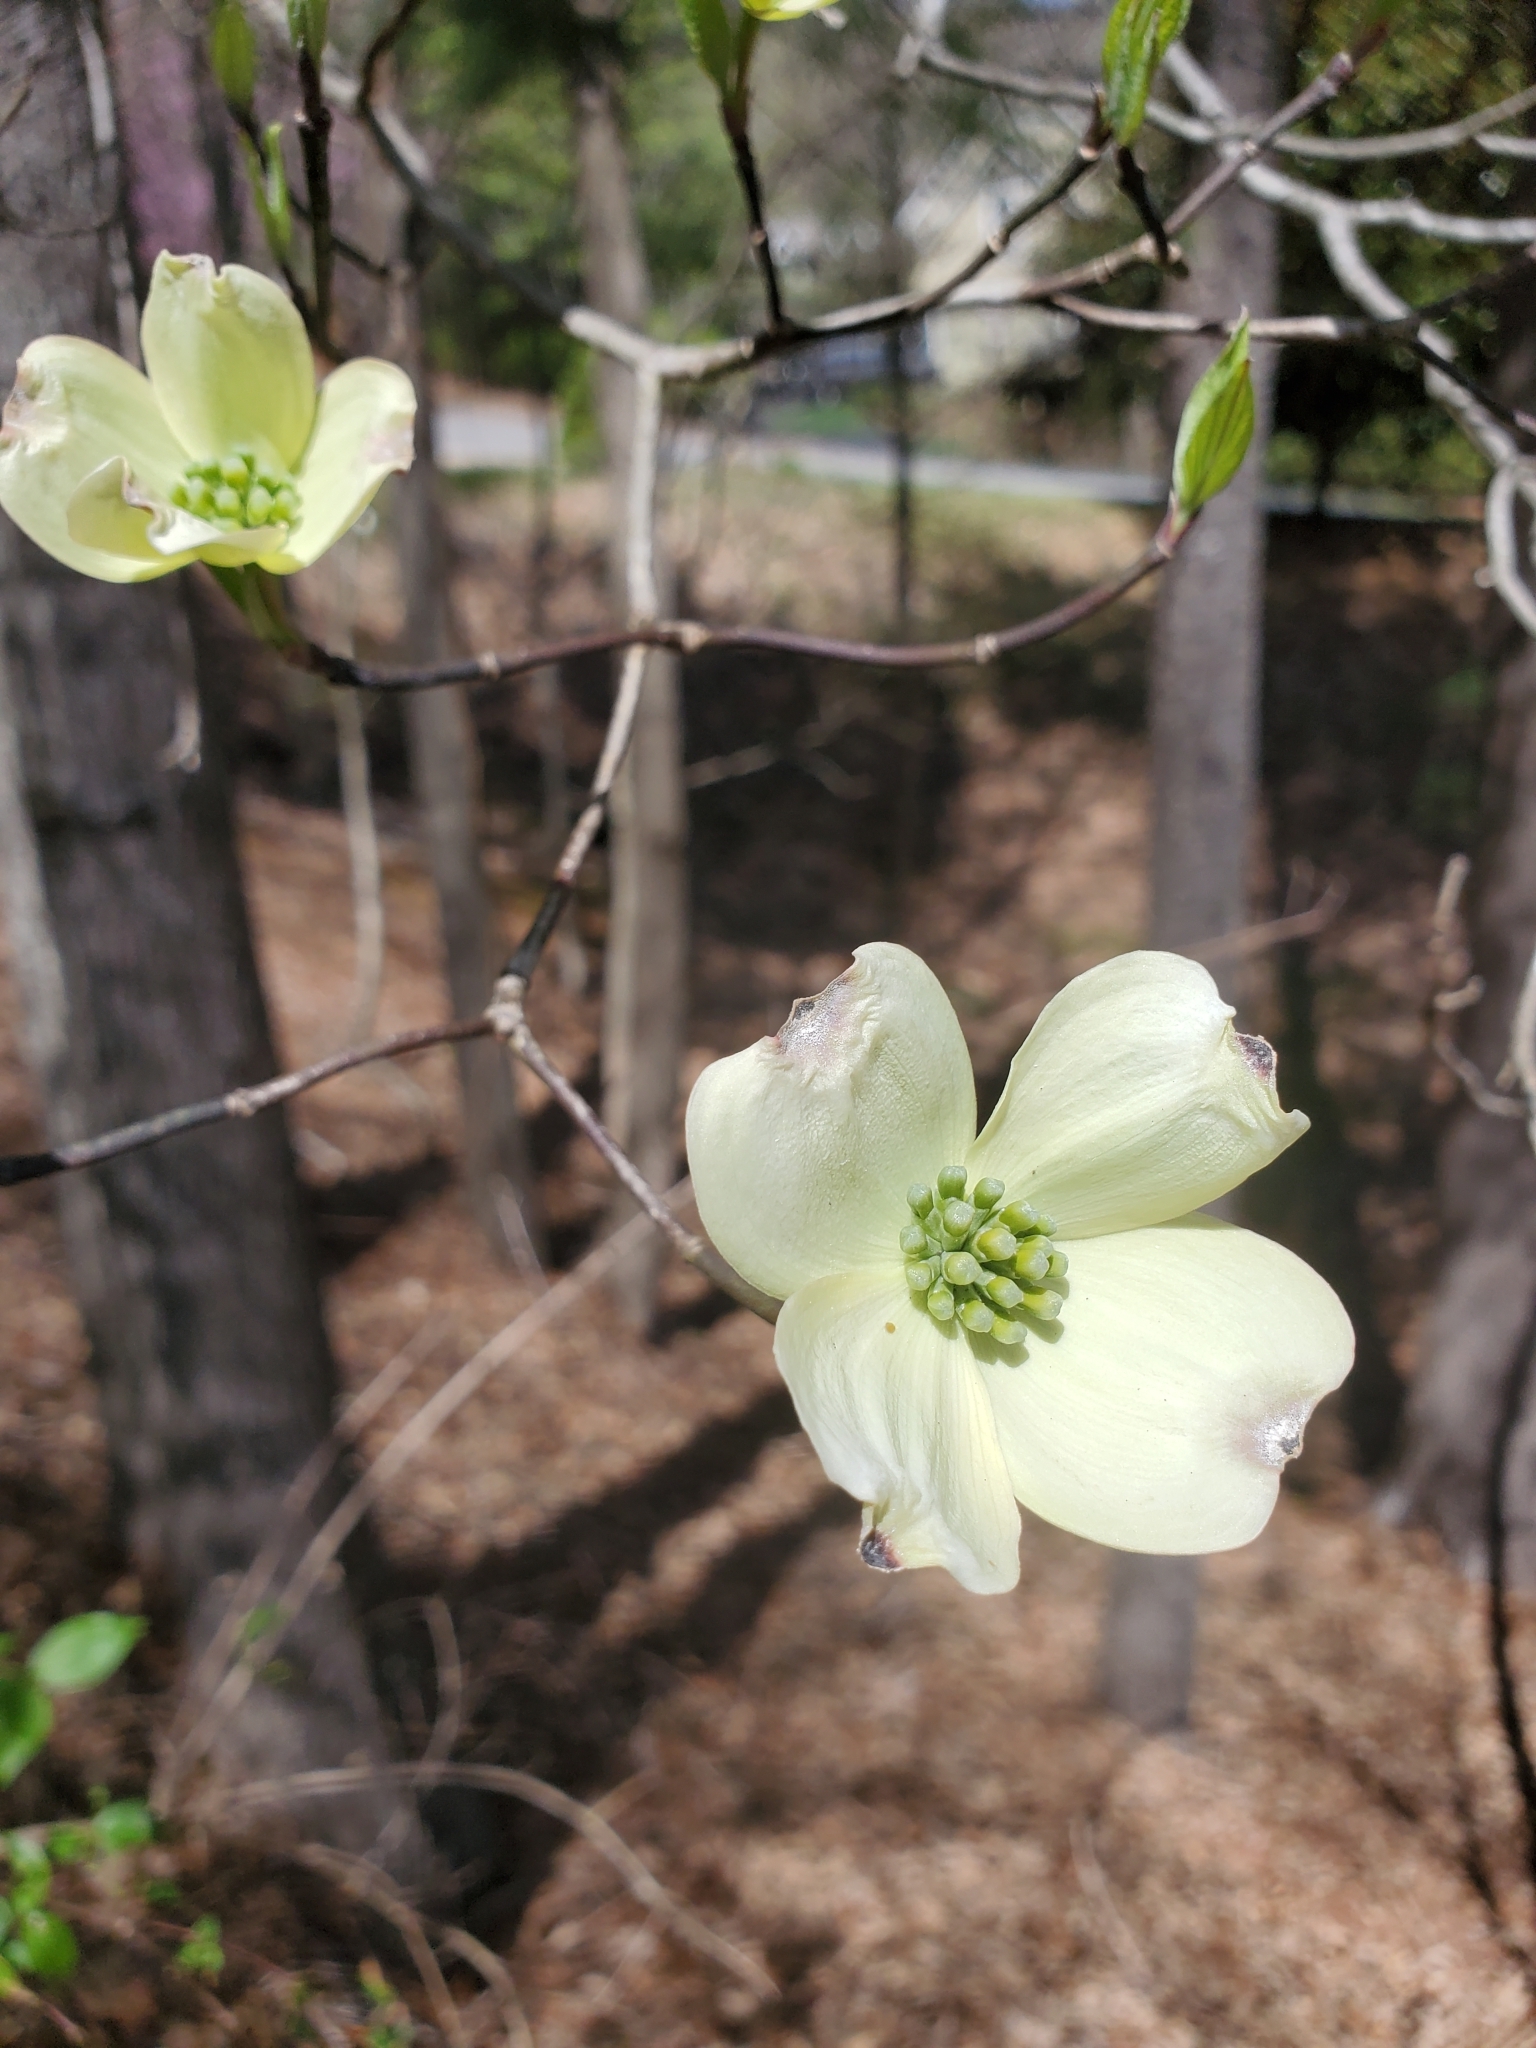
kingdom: Plantae
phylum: Tracheophyta
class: Magnoliopsida
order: Cornales
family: Cornaceae
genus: Cornus
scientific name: Cornus florida
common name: Flowering dogwood
